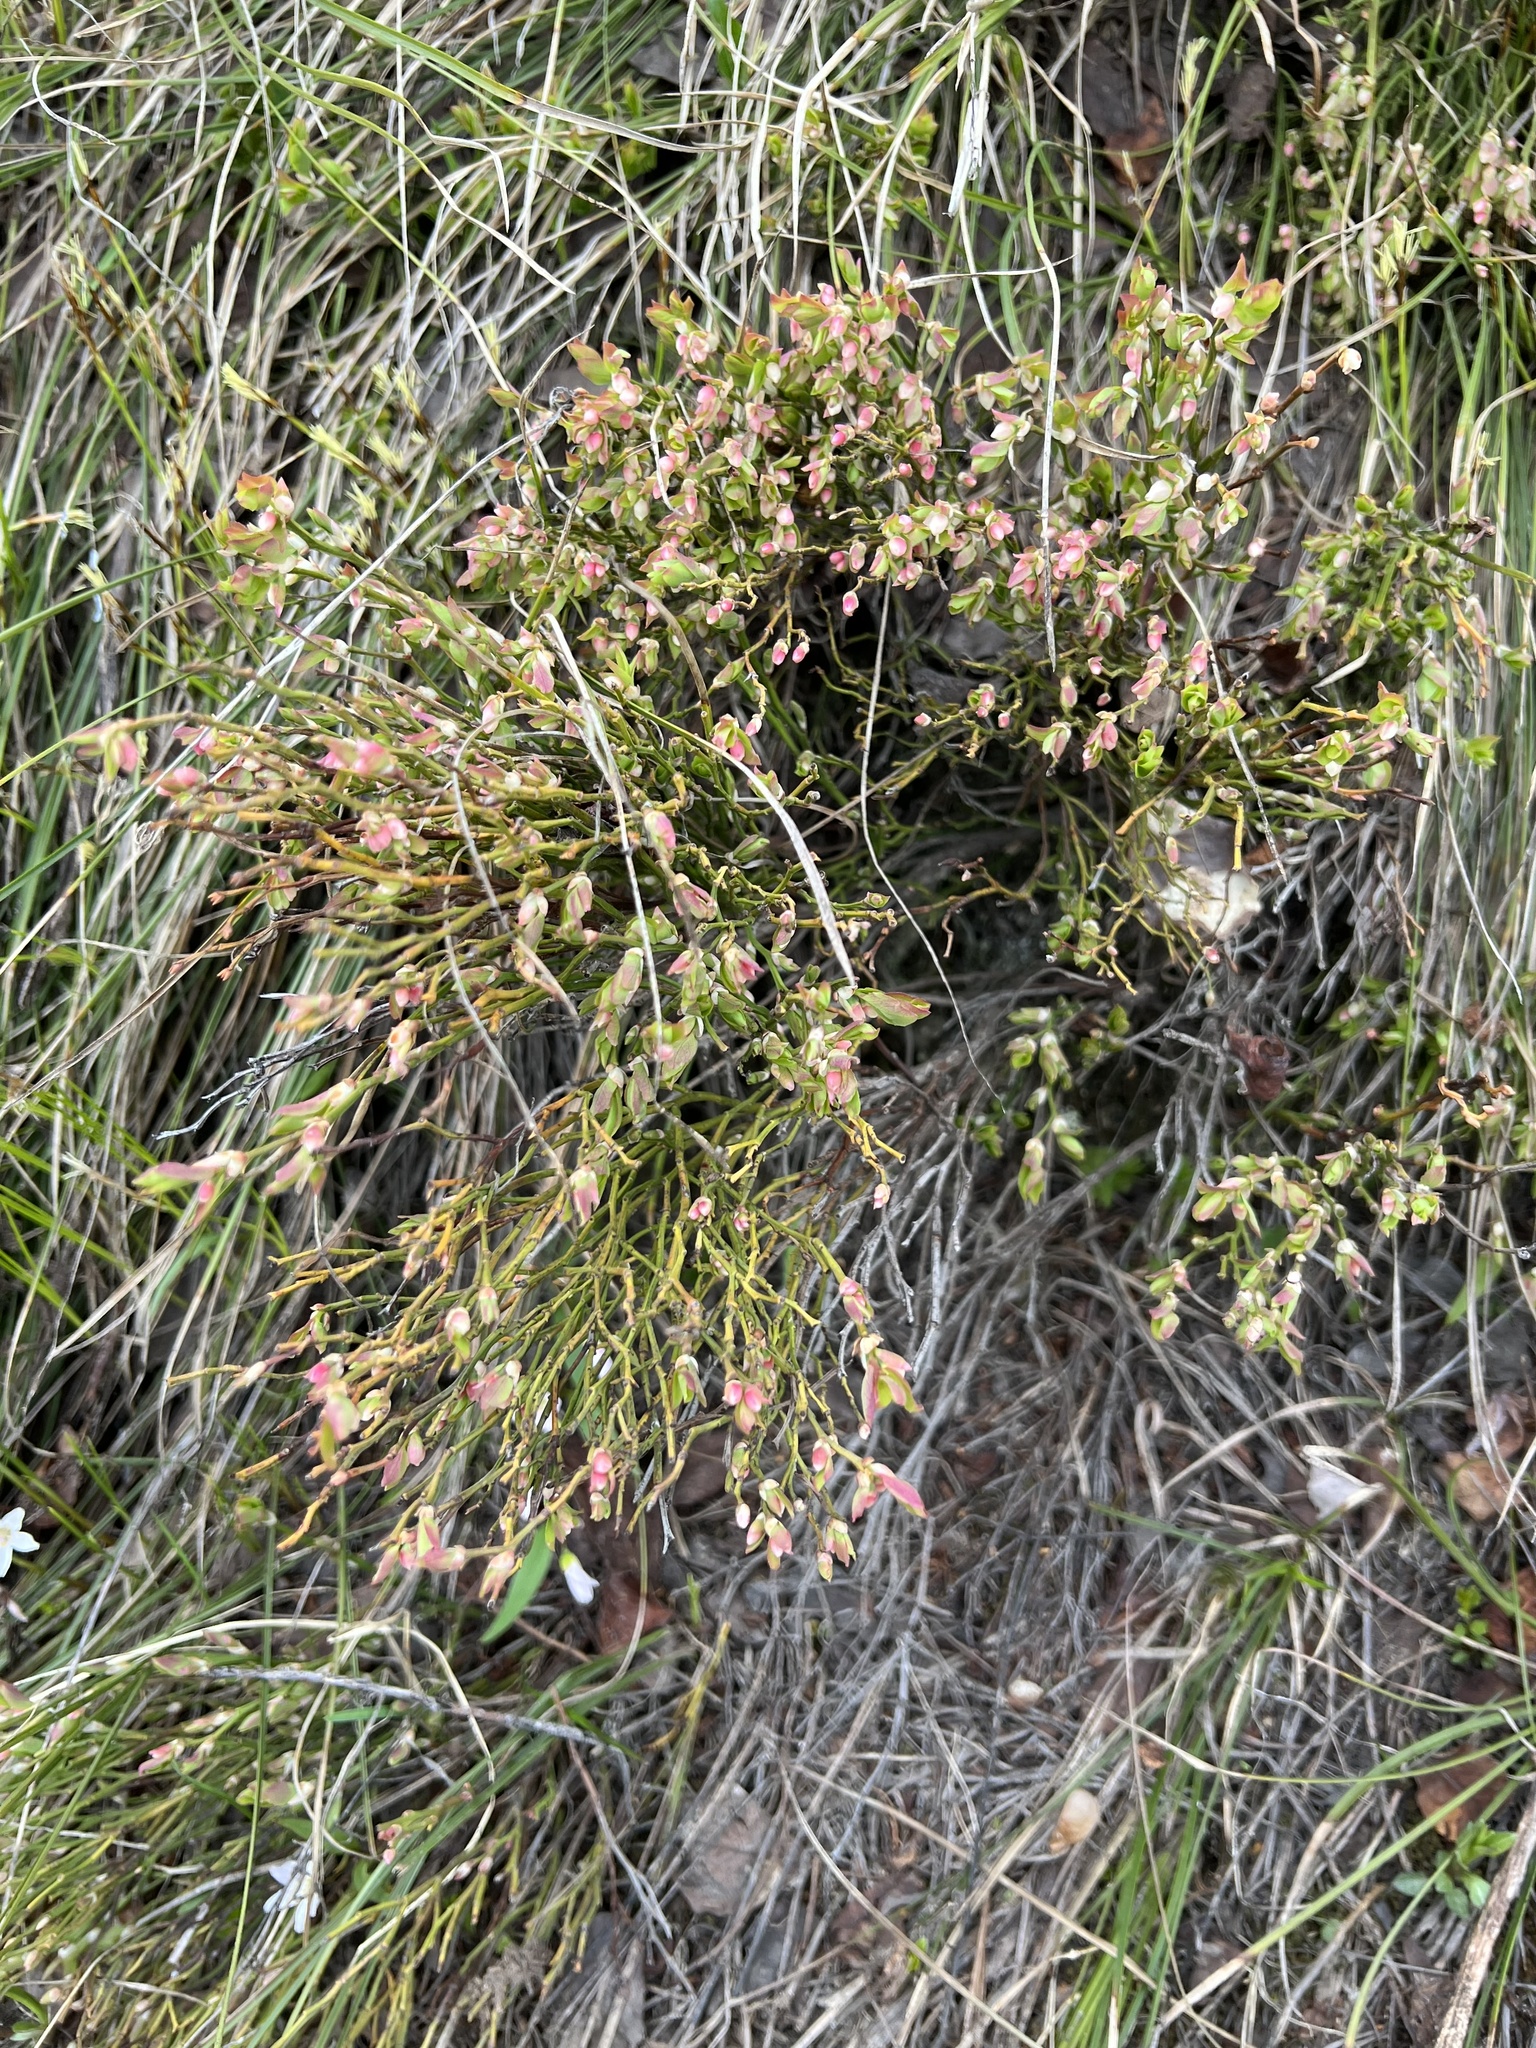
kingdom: Plantae
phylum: Tracheophyta
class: Magnoliopsida
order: Ericales
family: Ericaceae
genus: Vaccinium
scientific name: Vaccinium scoparium
